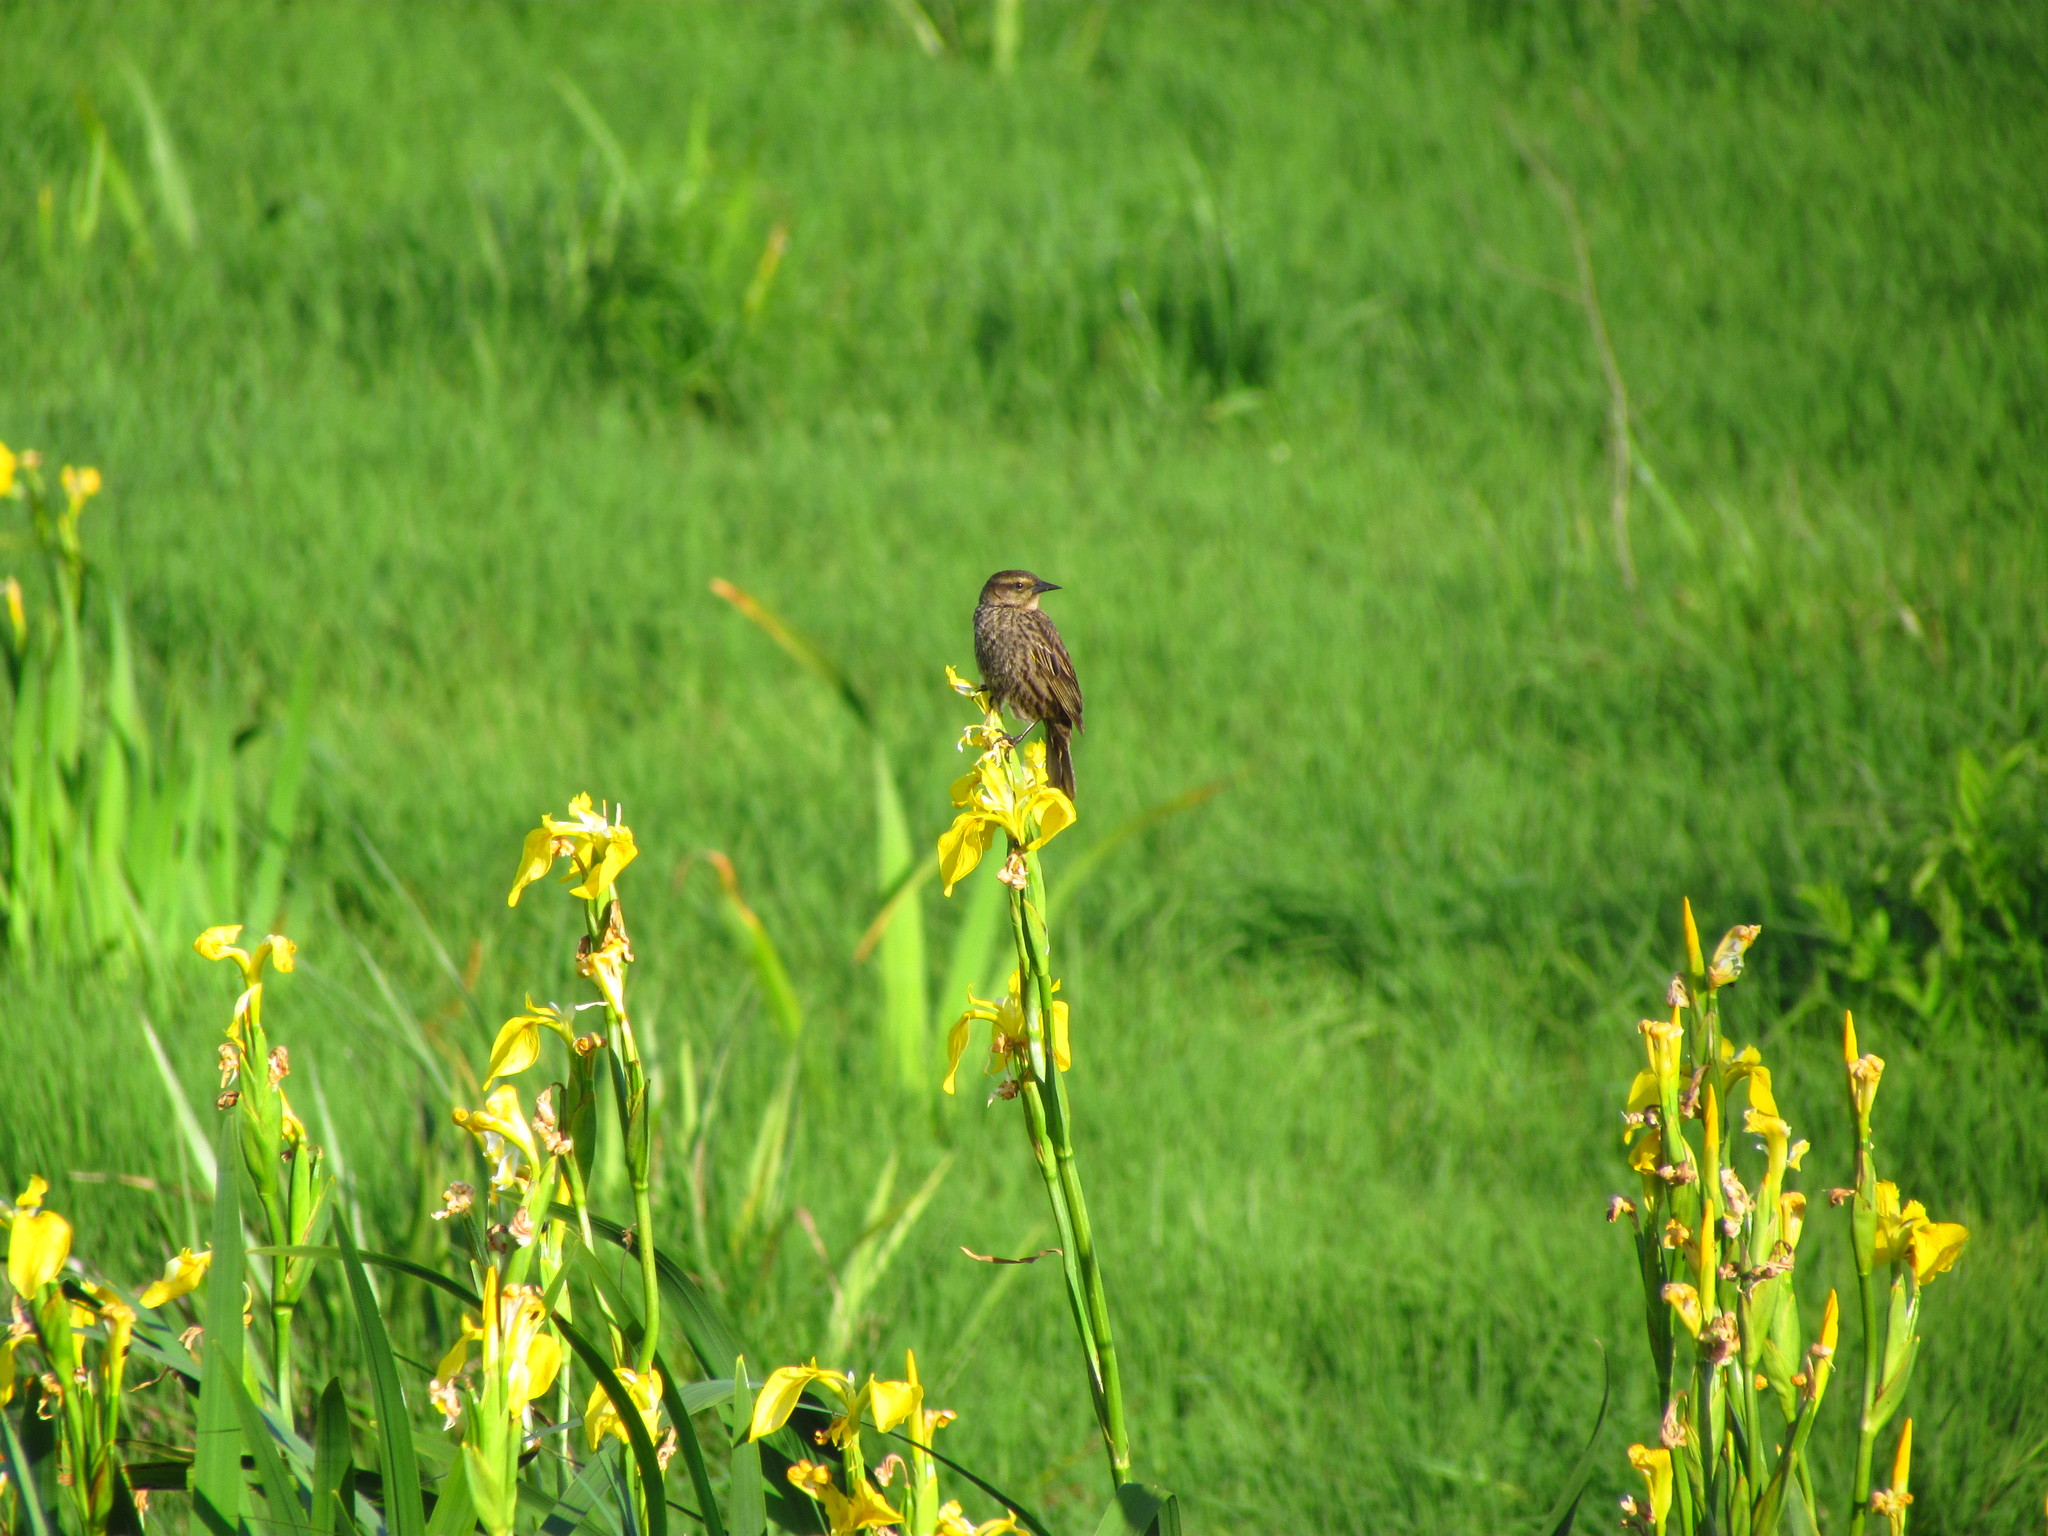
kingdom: Animalia
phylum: Chordata
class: Aves
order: Passeriformes
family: Icteridae
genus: Agelasticus
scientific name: Agelasticus thilius
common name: Yellow-winged blackbird
